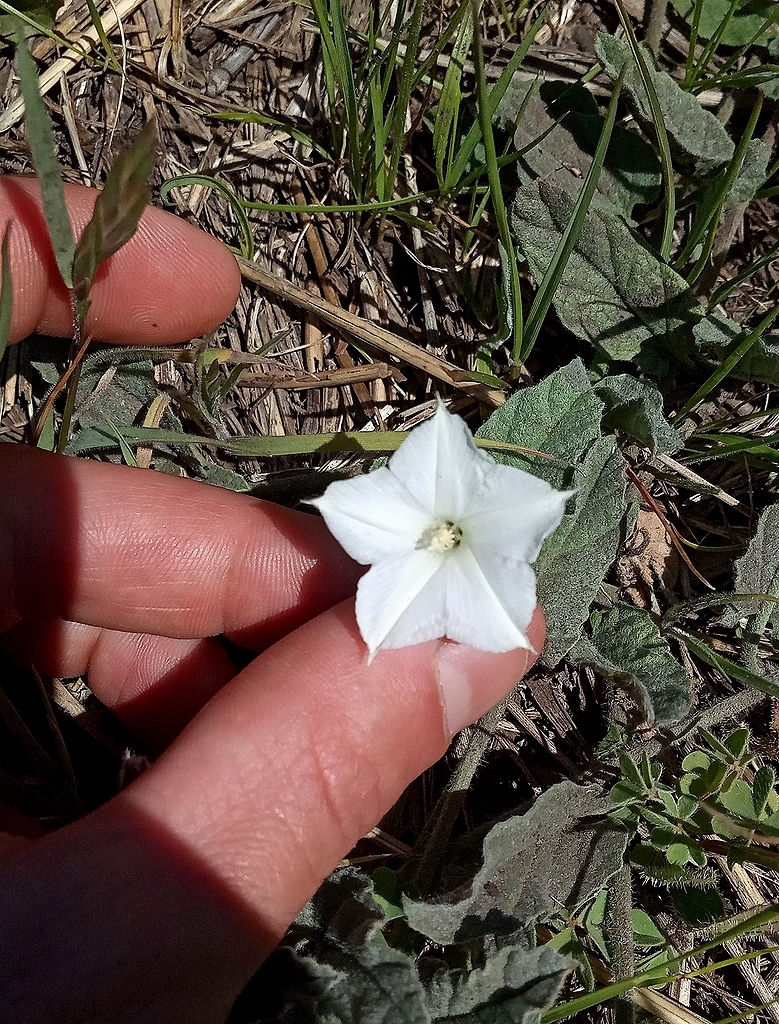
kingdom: Plantae
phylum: Tracheophyta
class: Magnoliopsida
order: Solanales
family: Convolvulaceae
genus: Convolvulus
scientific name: Convolvulus hermanniae
